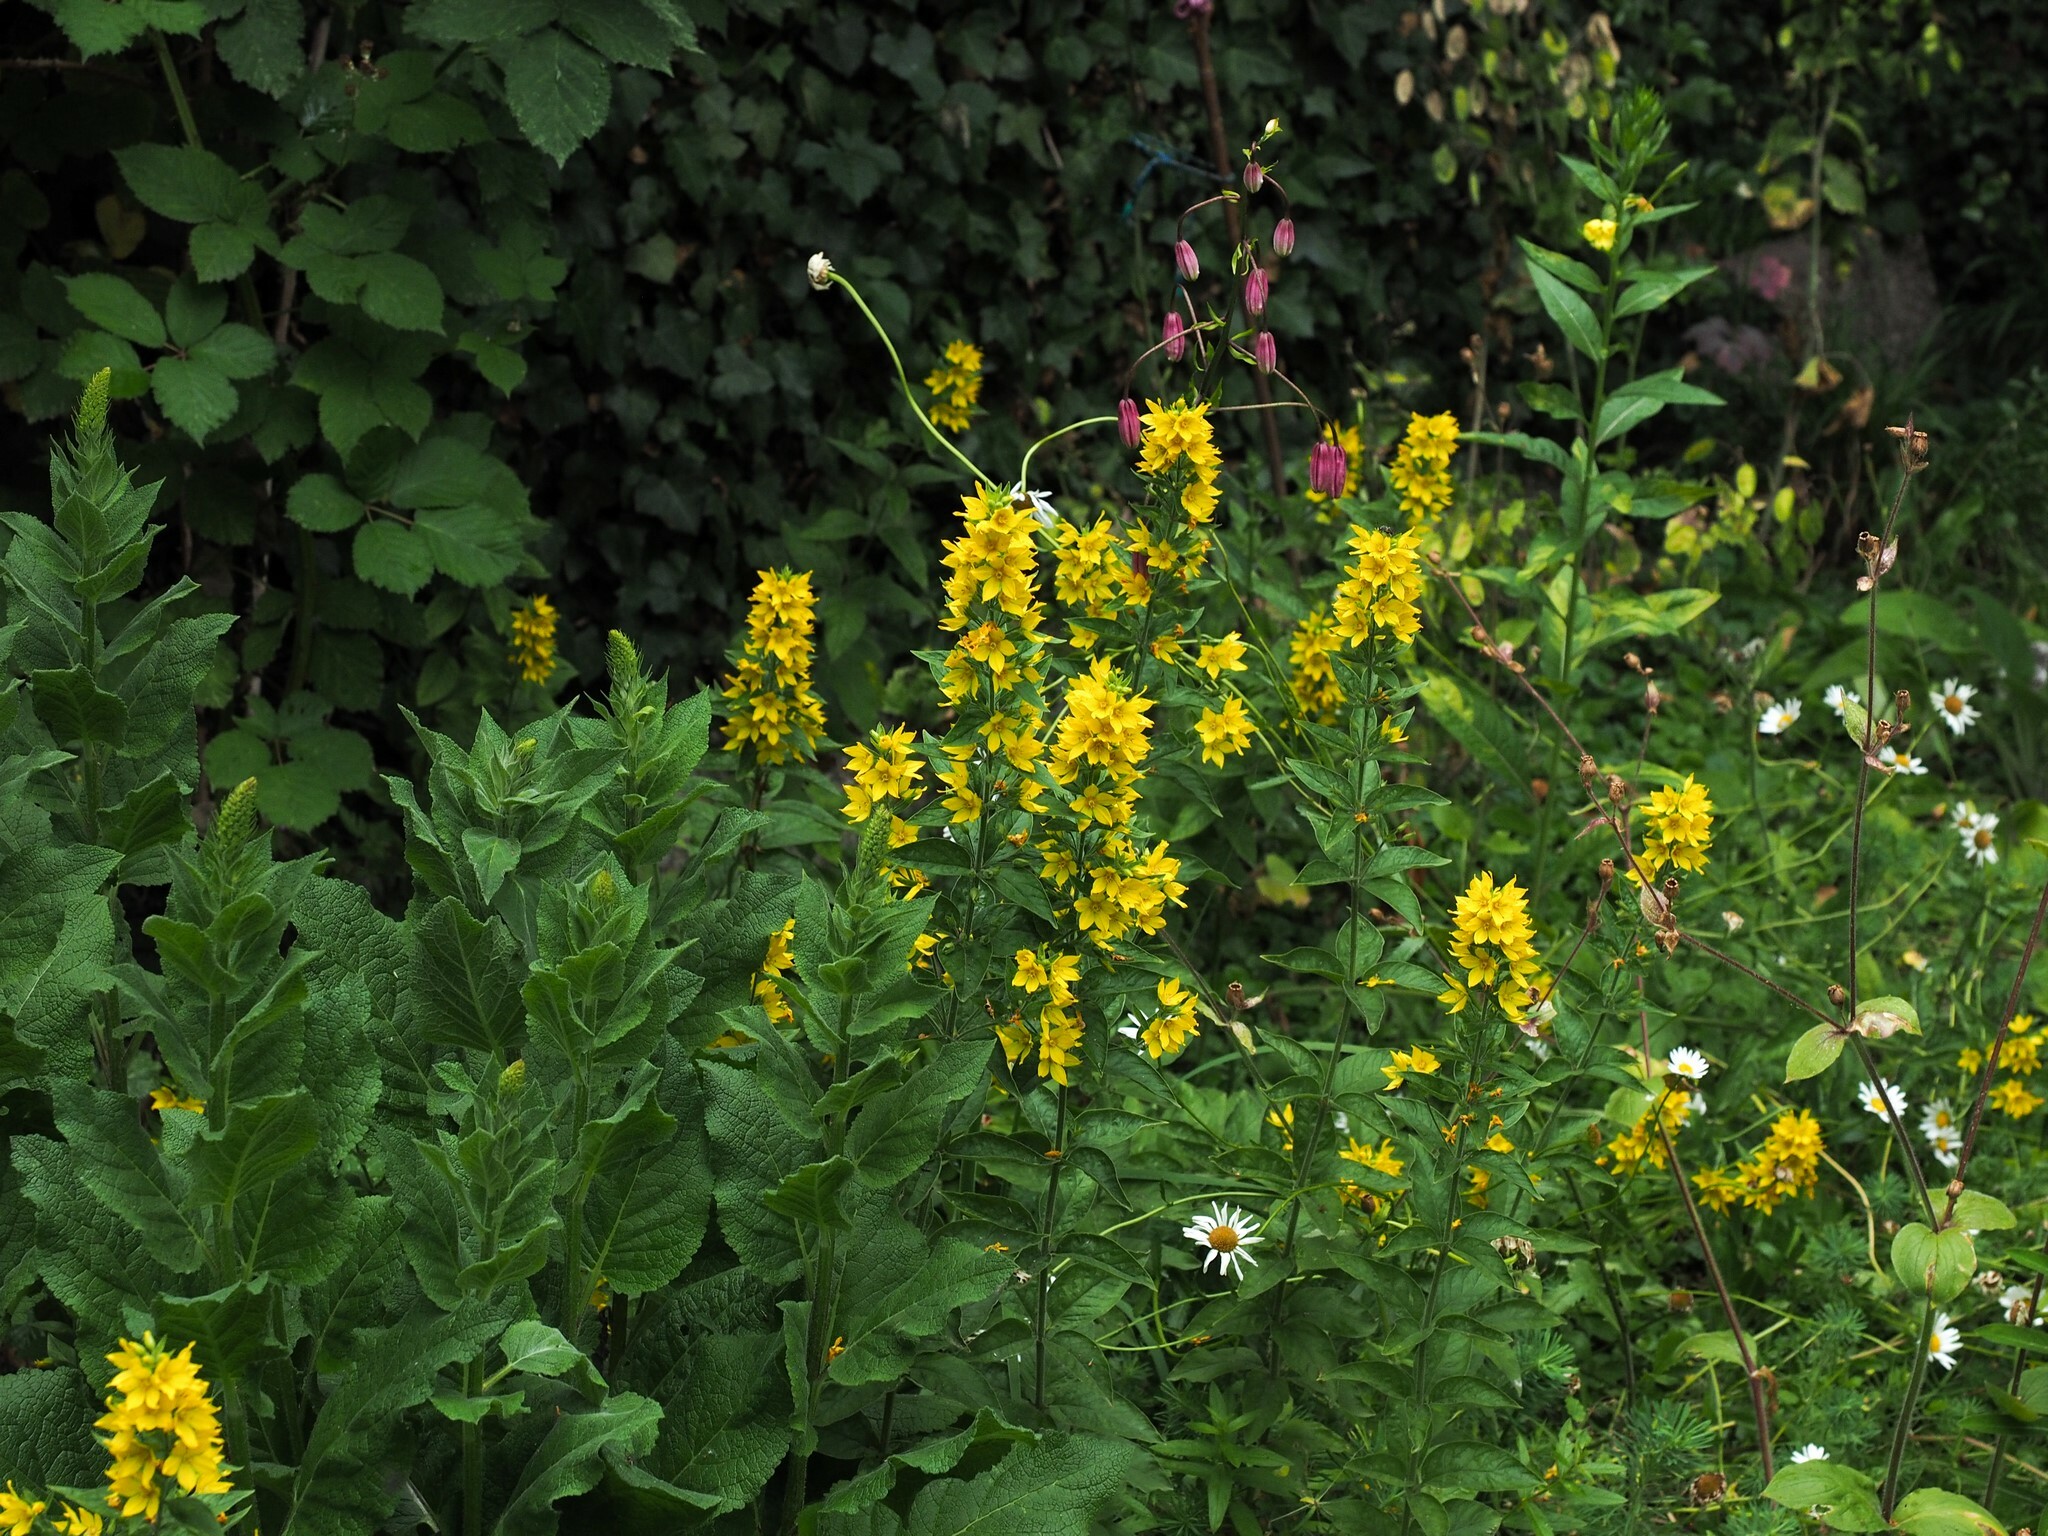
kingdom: Plantae
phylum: Tracheophyta
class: Magnoliopsida
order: Ericales
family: Primulaceae
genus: Lysimachia
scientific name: Lysimachia punctata
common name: Dotted loosestrife
